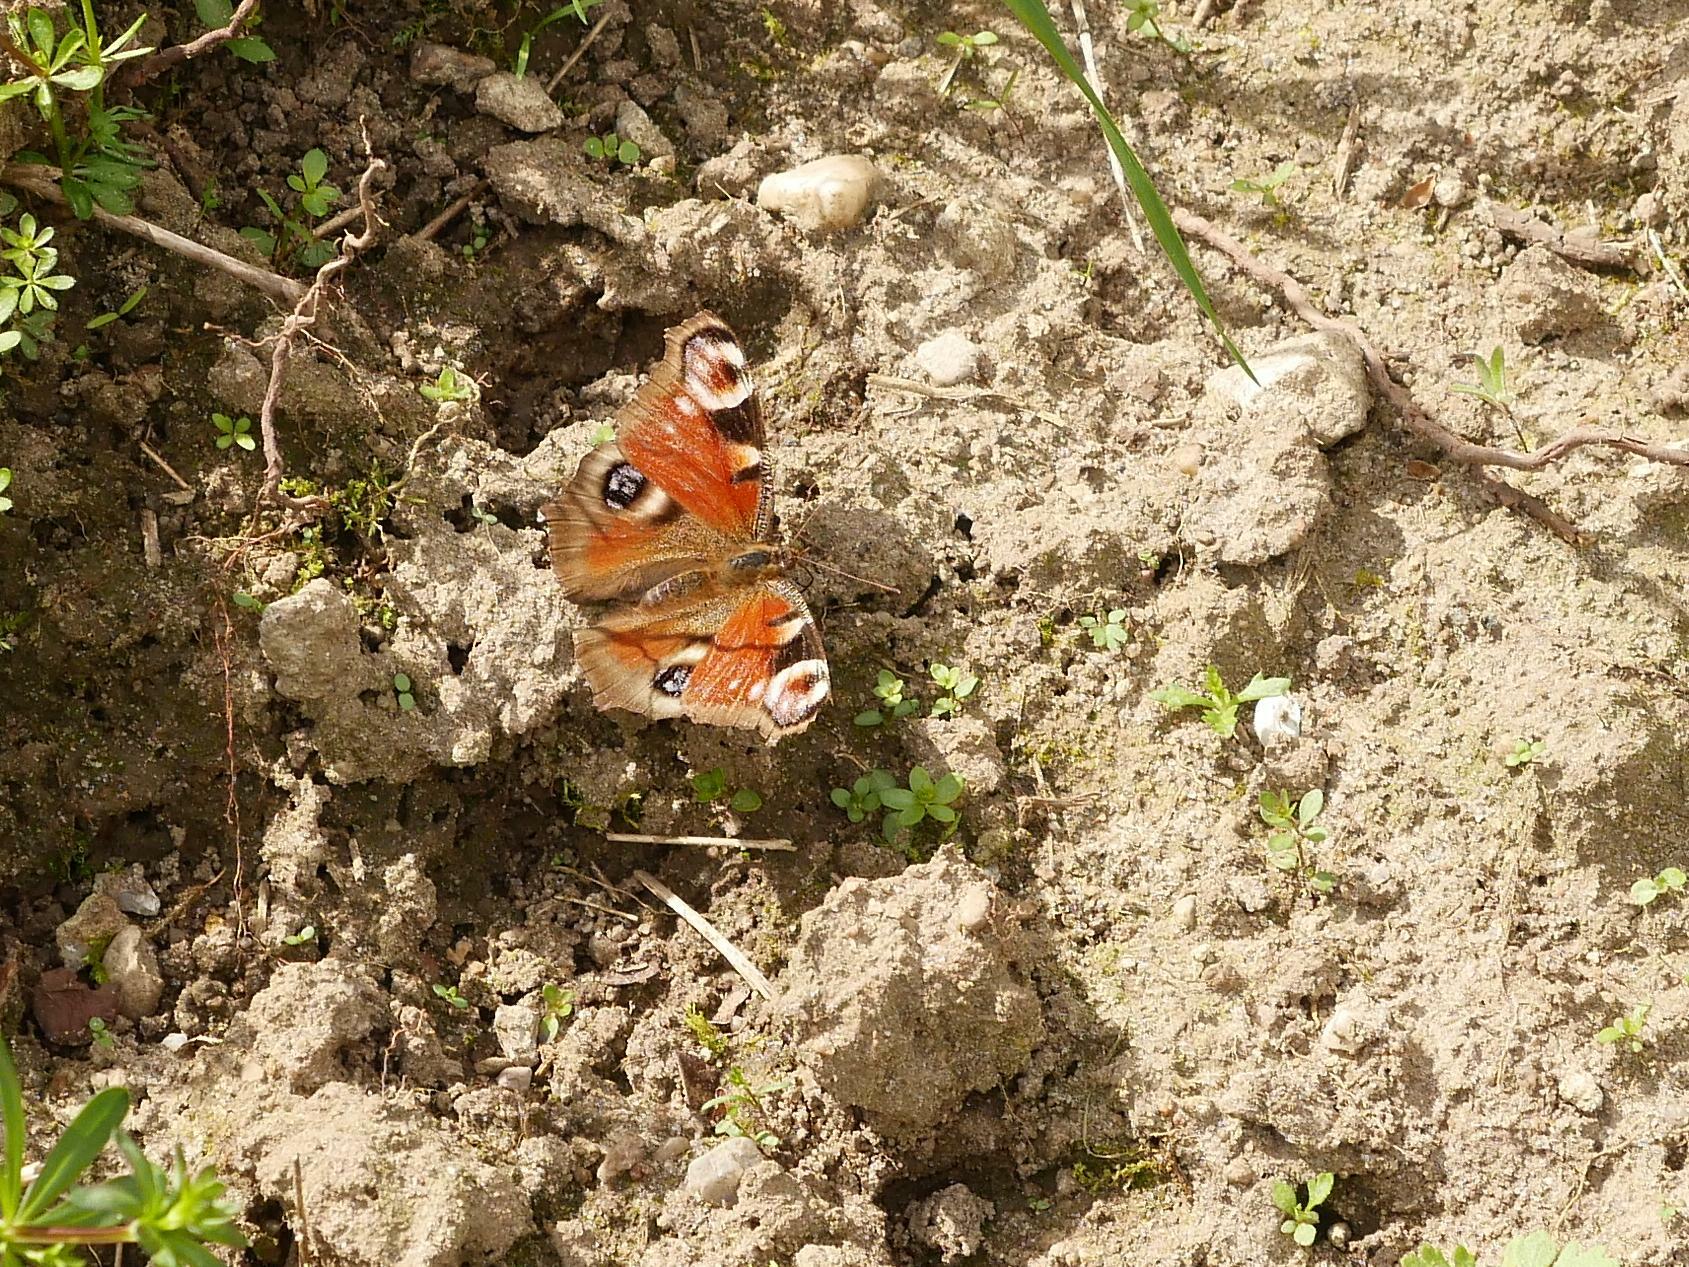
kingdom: Animalia
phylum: Arthropoda
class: Insecta
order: Lepidoptera
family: Nymphalidae
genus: Aglais
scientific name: Aglais io
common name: Peacock
